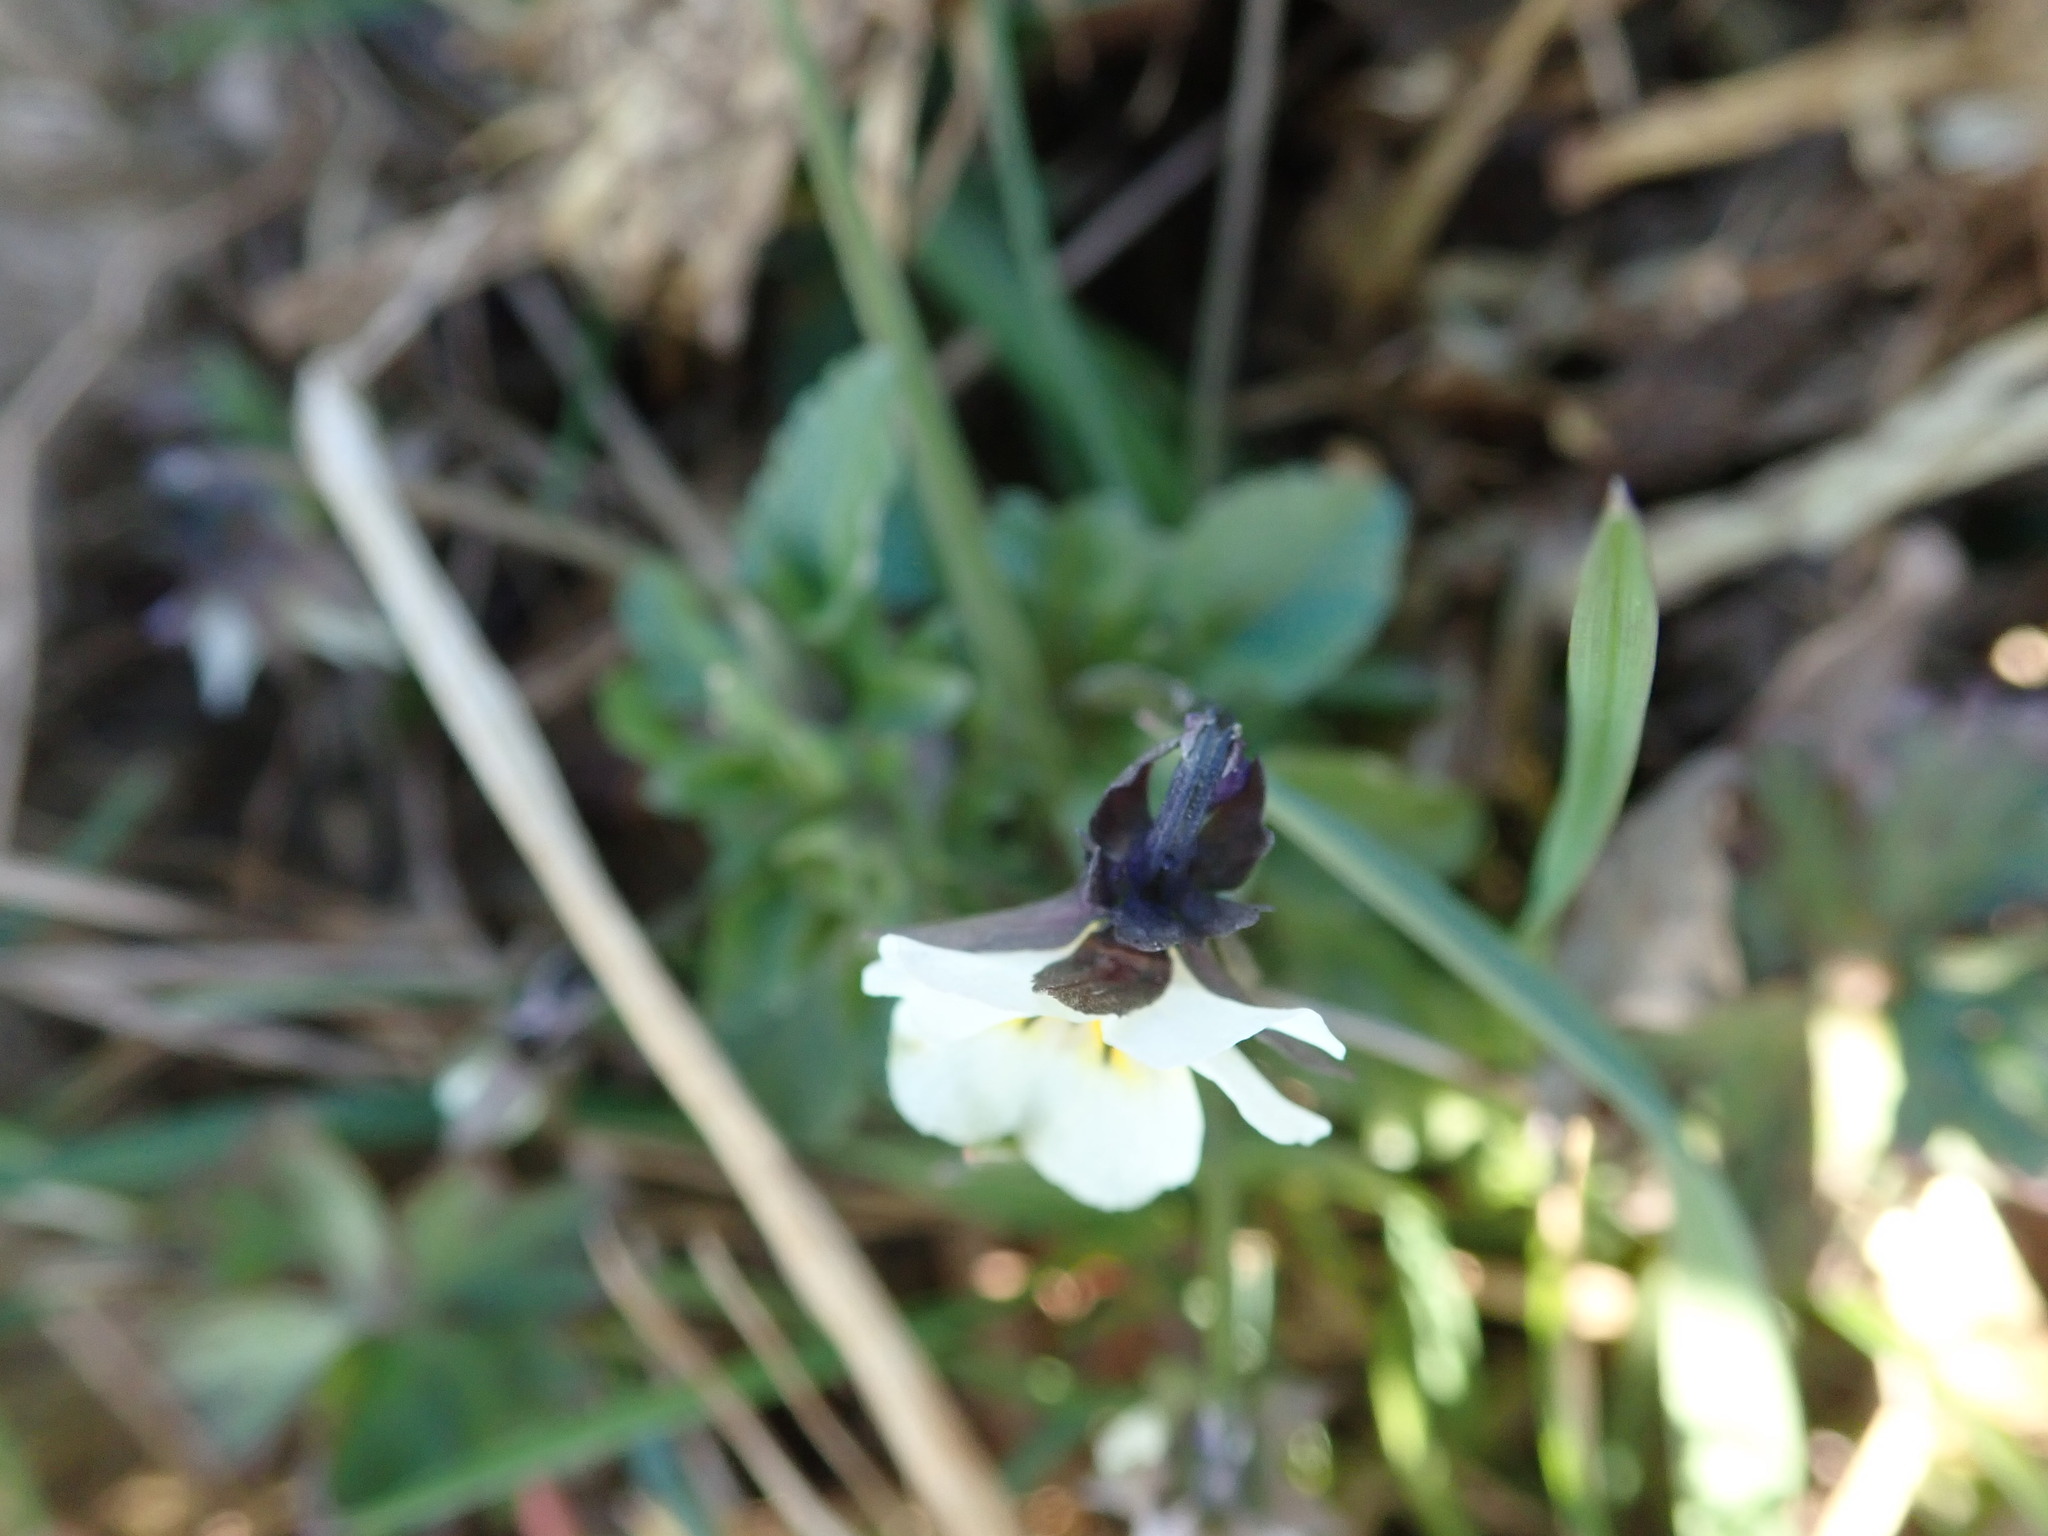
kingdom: Plantae
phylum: Tracheophyta
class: Magnoliopsida
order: Malpighiales
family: Violaceae
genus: Viola
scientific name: Viola arvensis
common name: Field pansy
